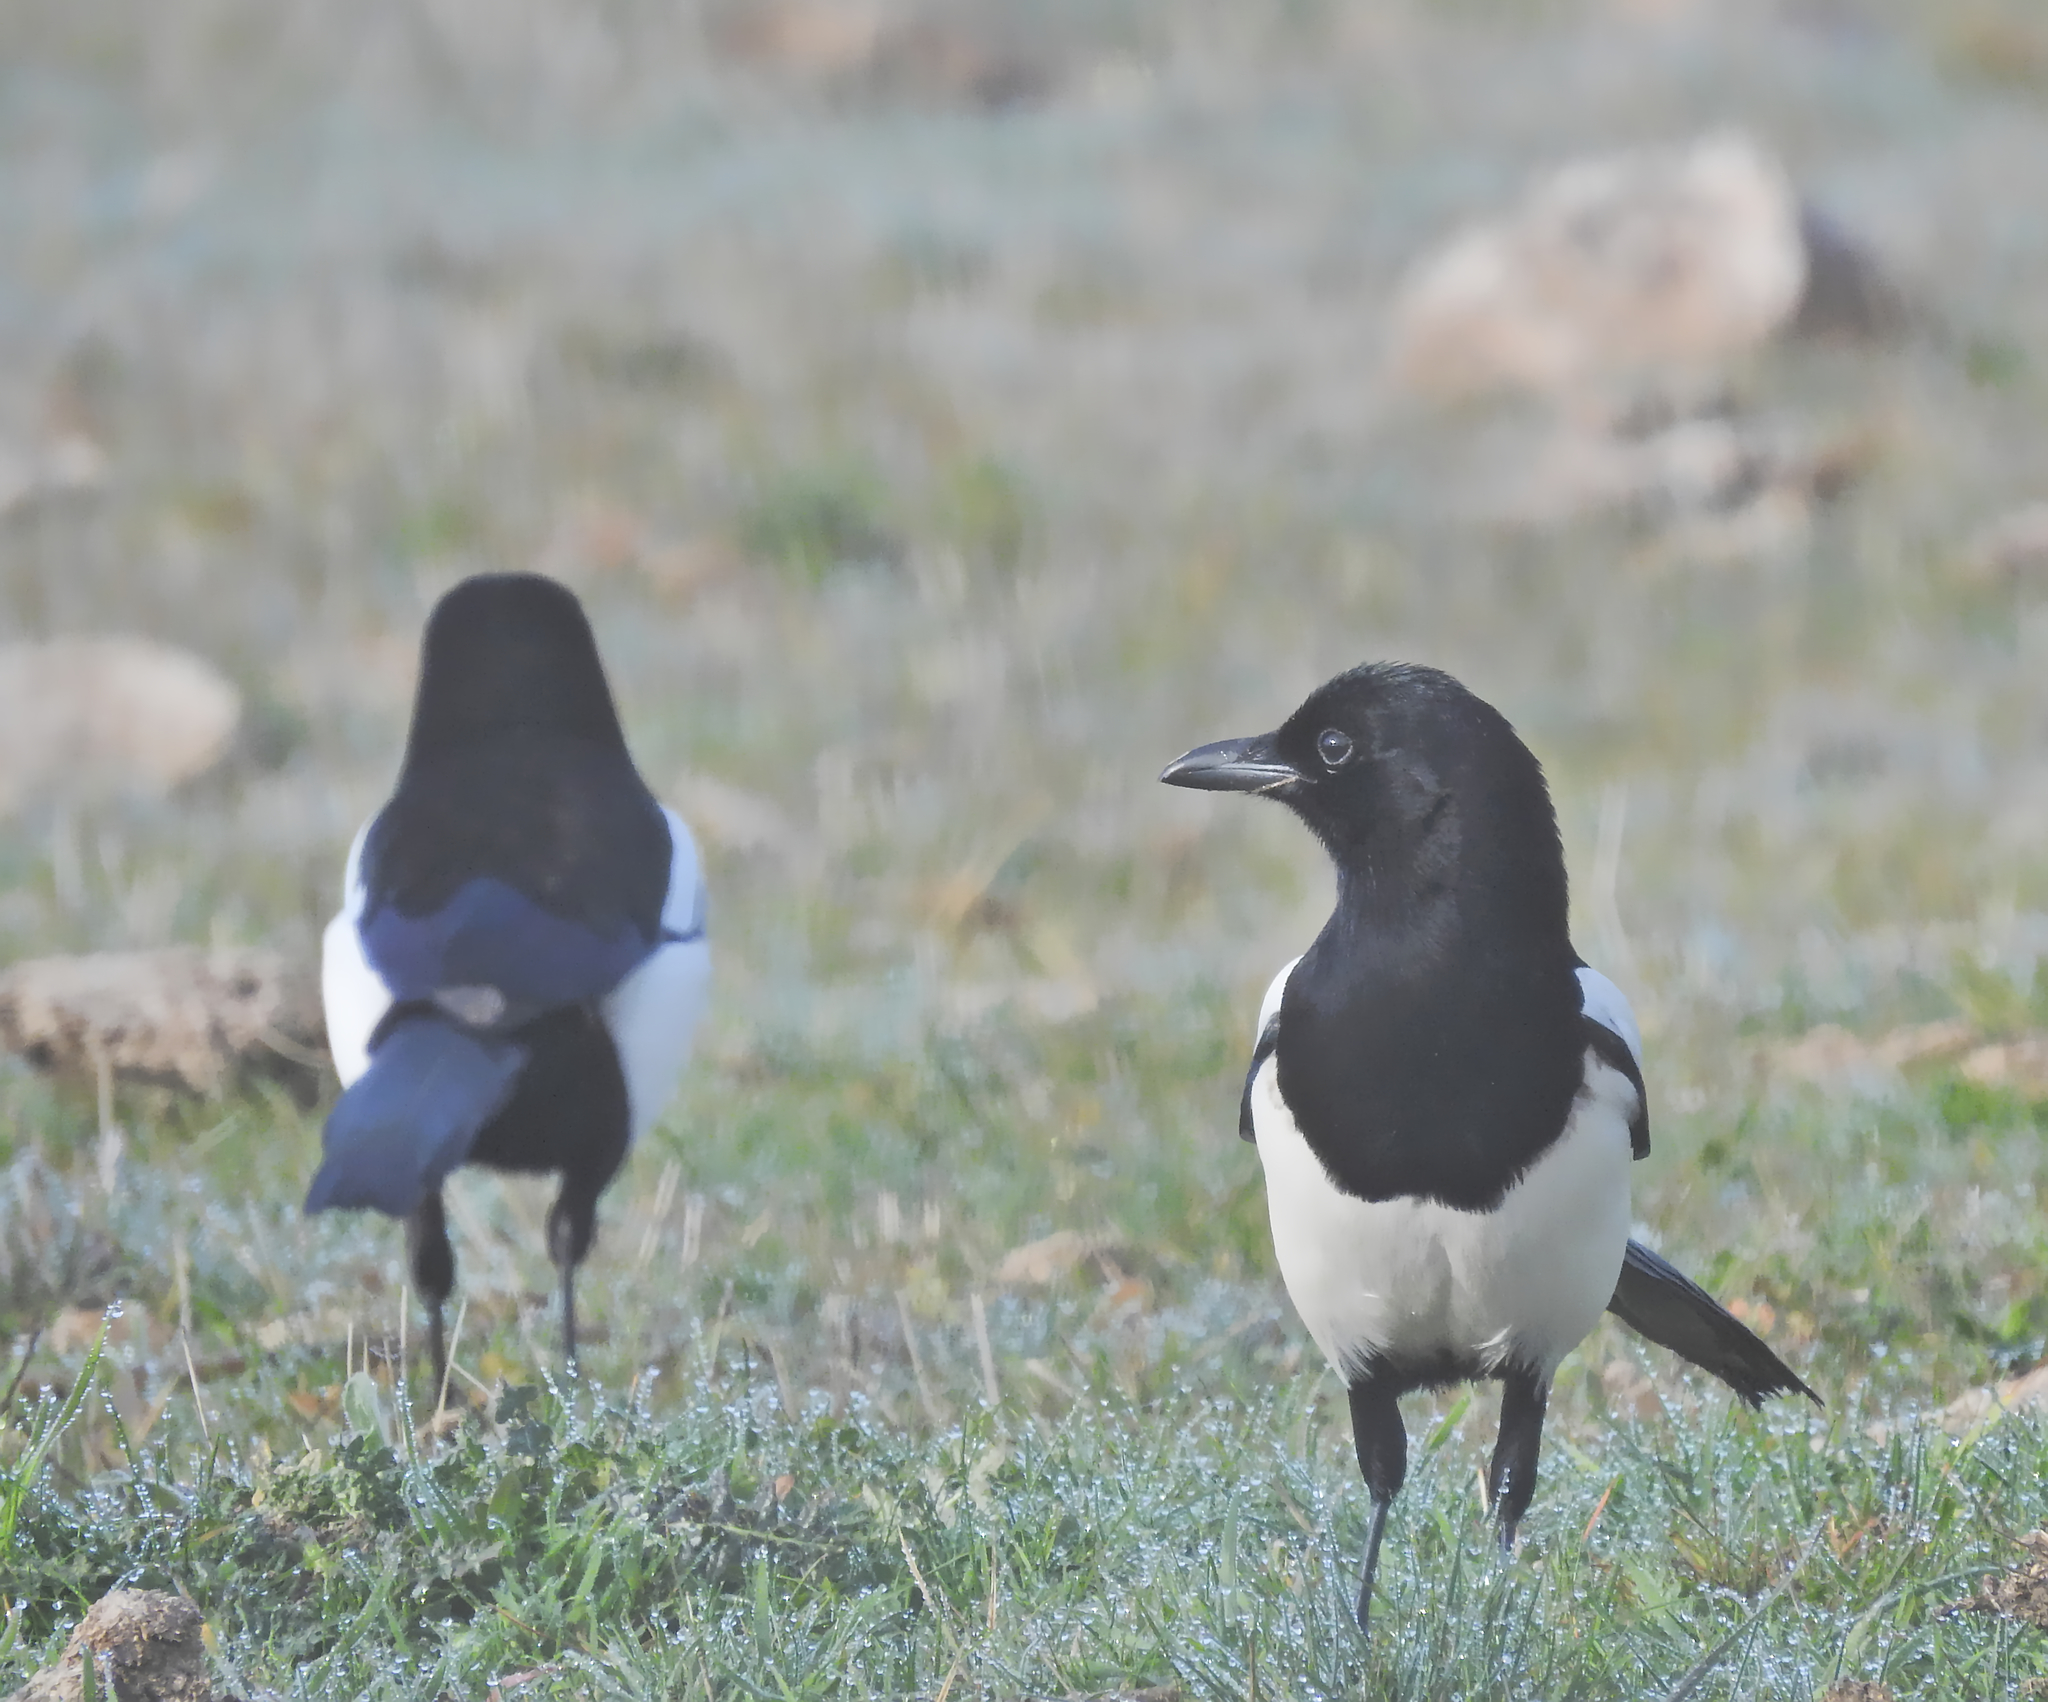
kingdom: Animalia
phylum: Chordata
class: Aves
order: Passeriformes
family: Corvidae
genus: Pica
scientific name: Pica pica
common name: Eurasian magpie
